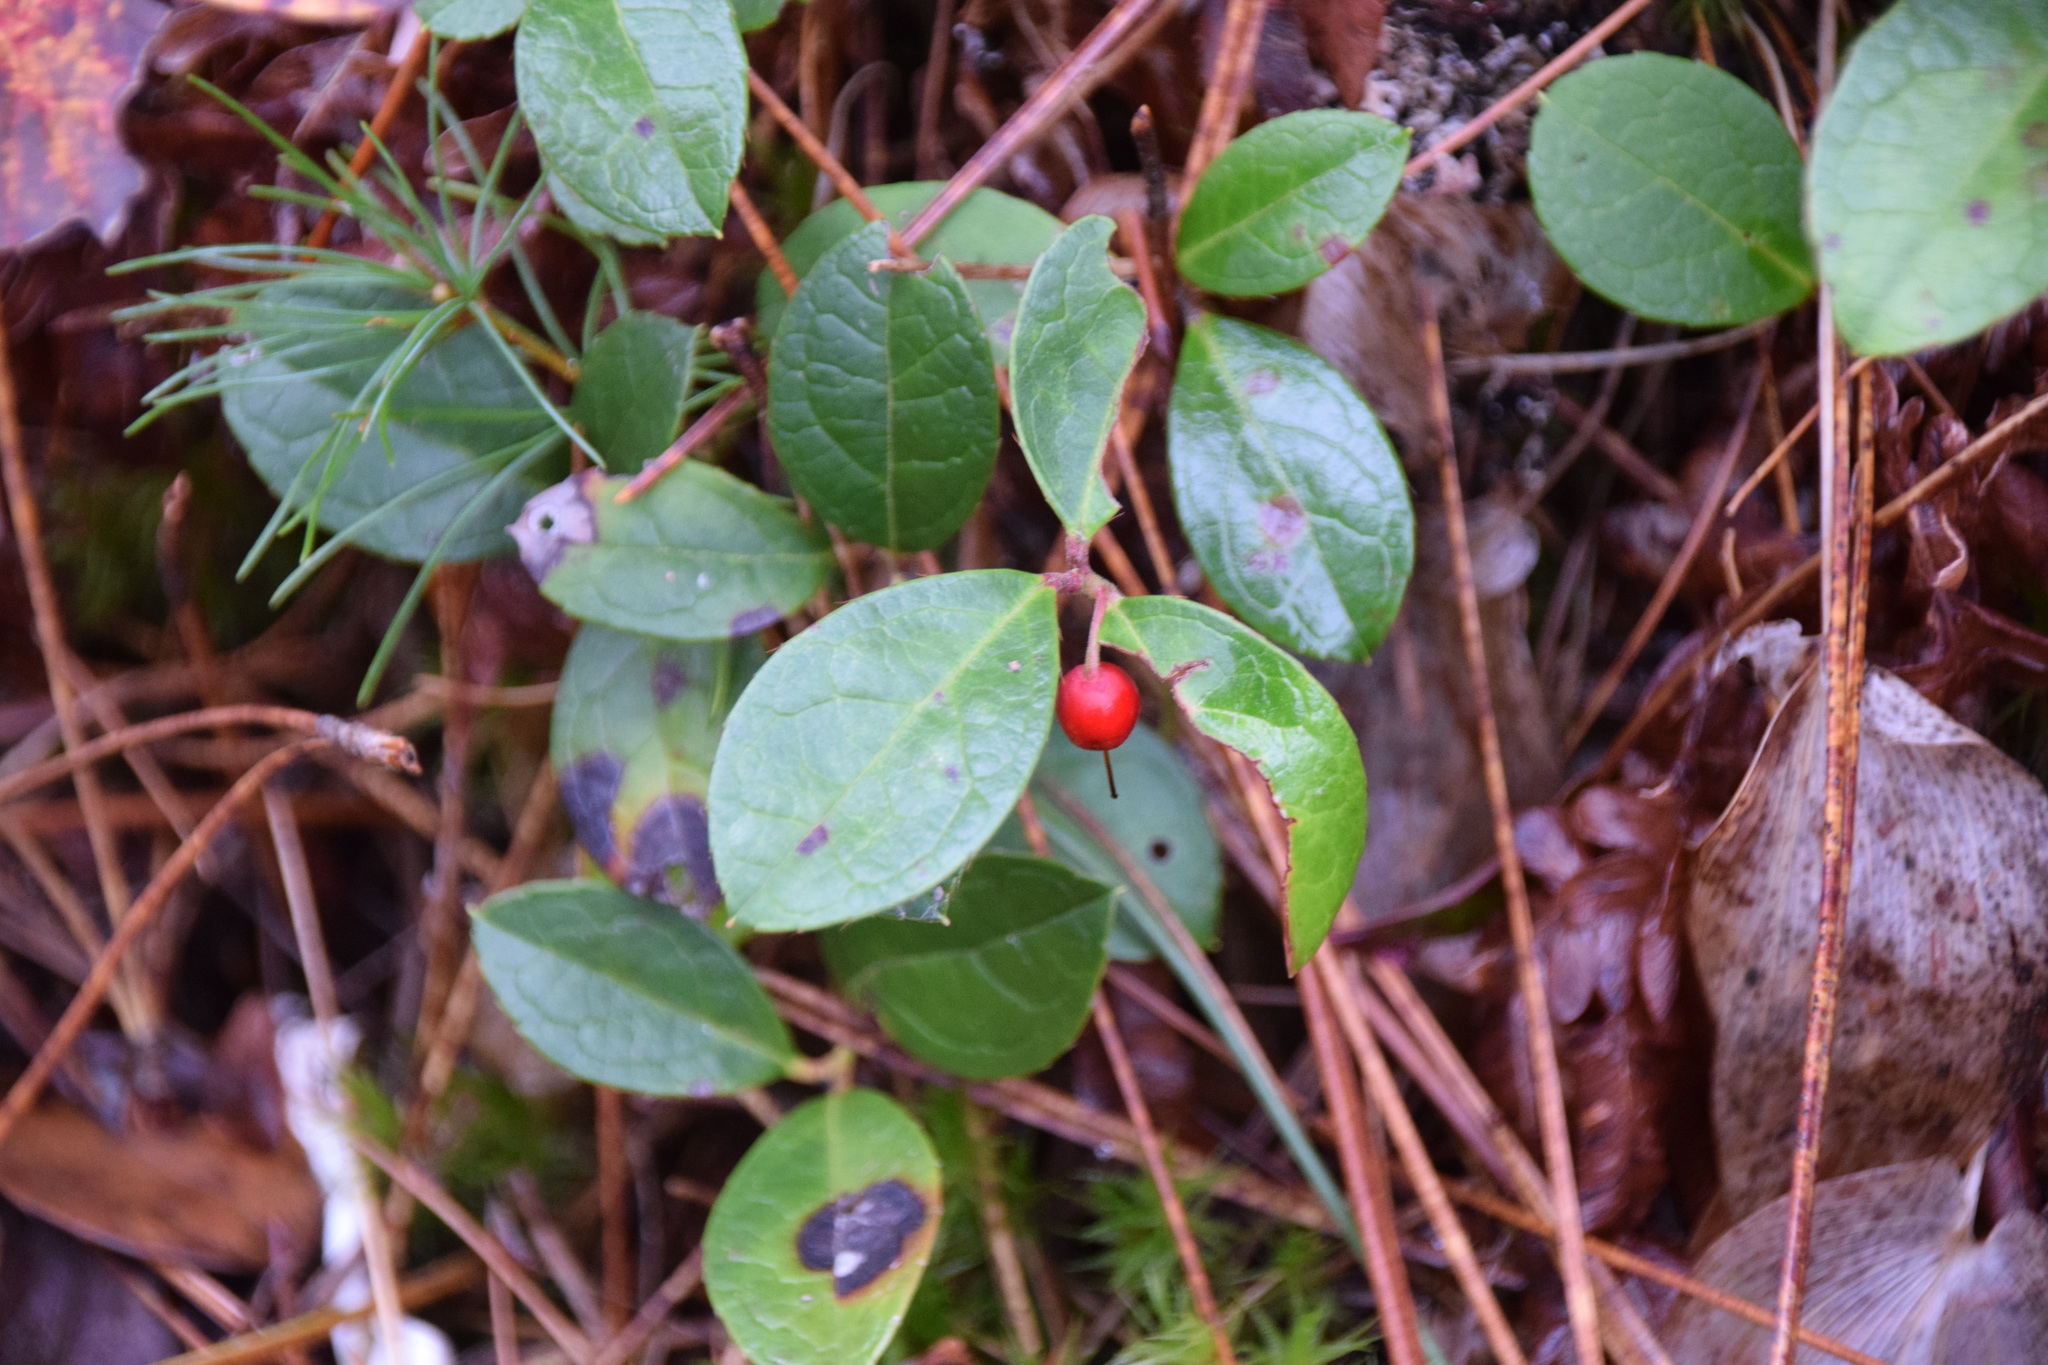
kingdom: Plantae
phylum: Tracheophyta
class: Magnoliopsida
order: Ericales
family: Ericaceae
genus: Gaultheria
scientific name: Gaultheria procumbens
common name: Checkerberry
